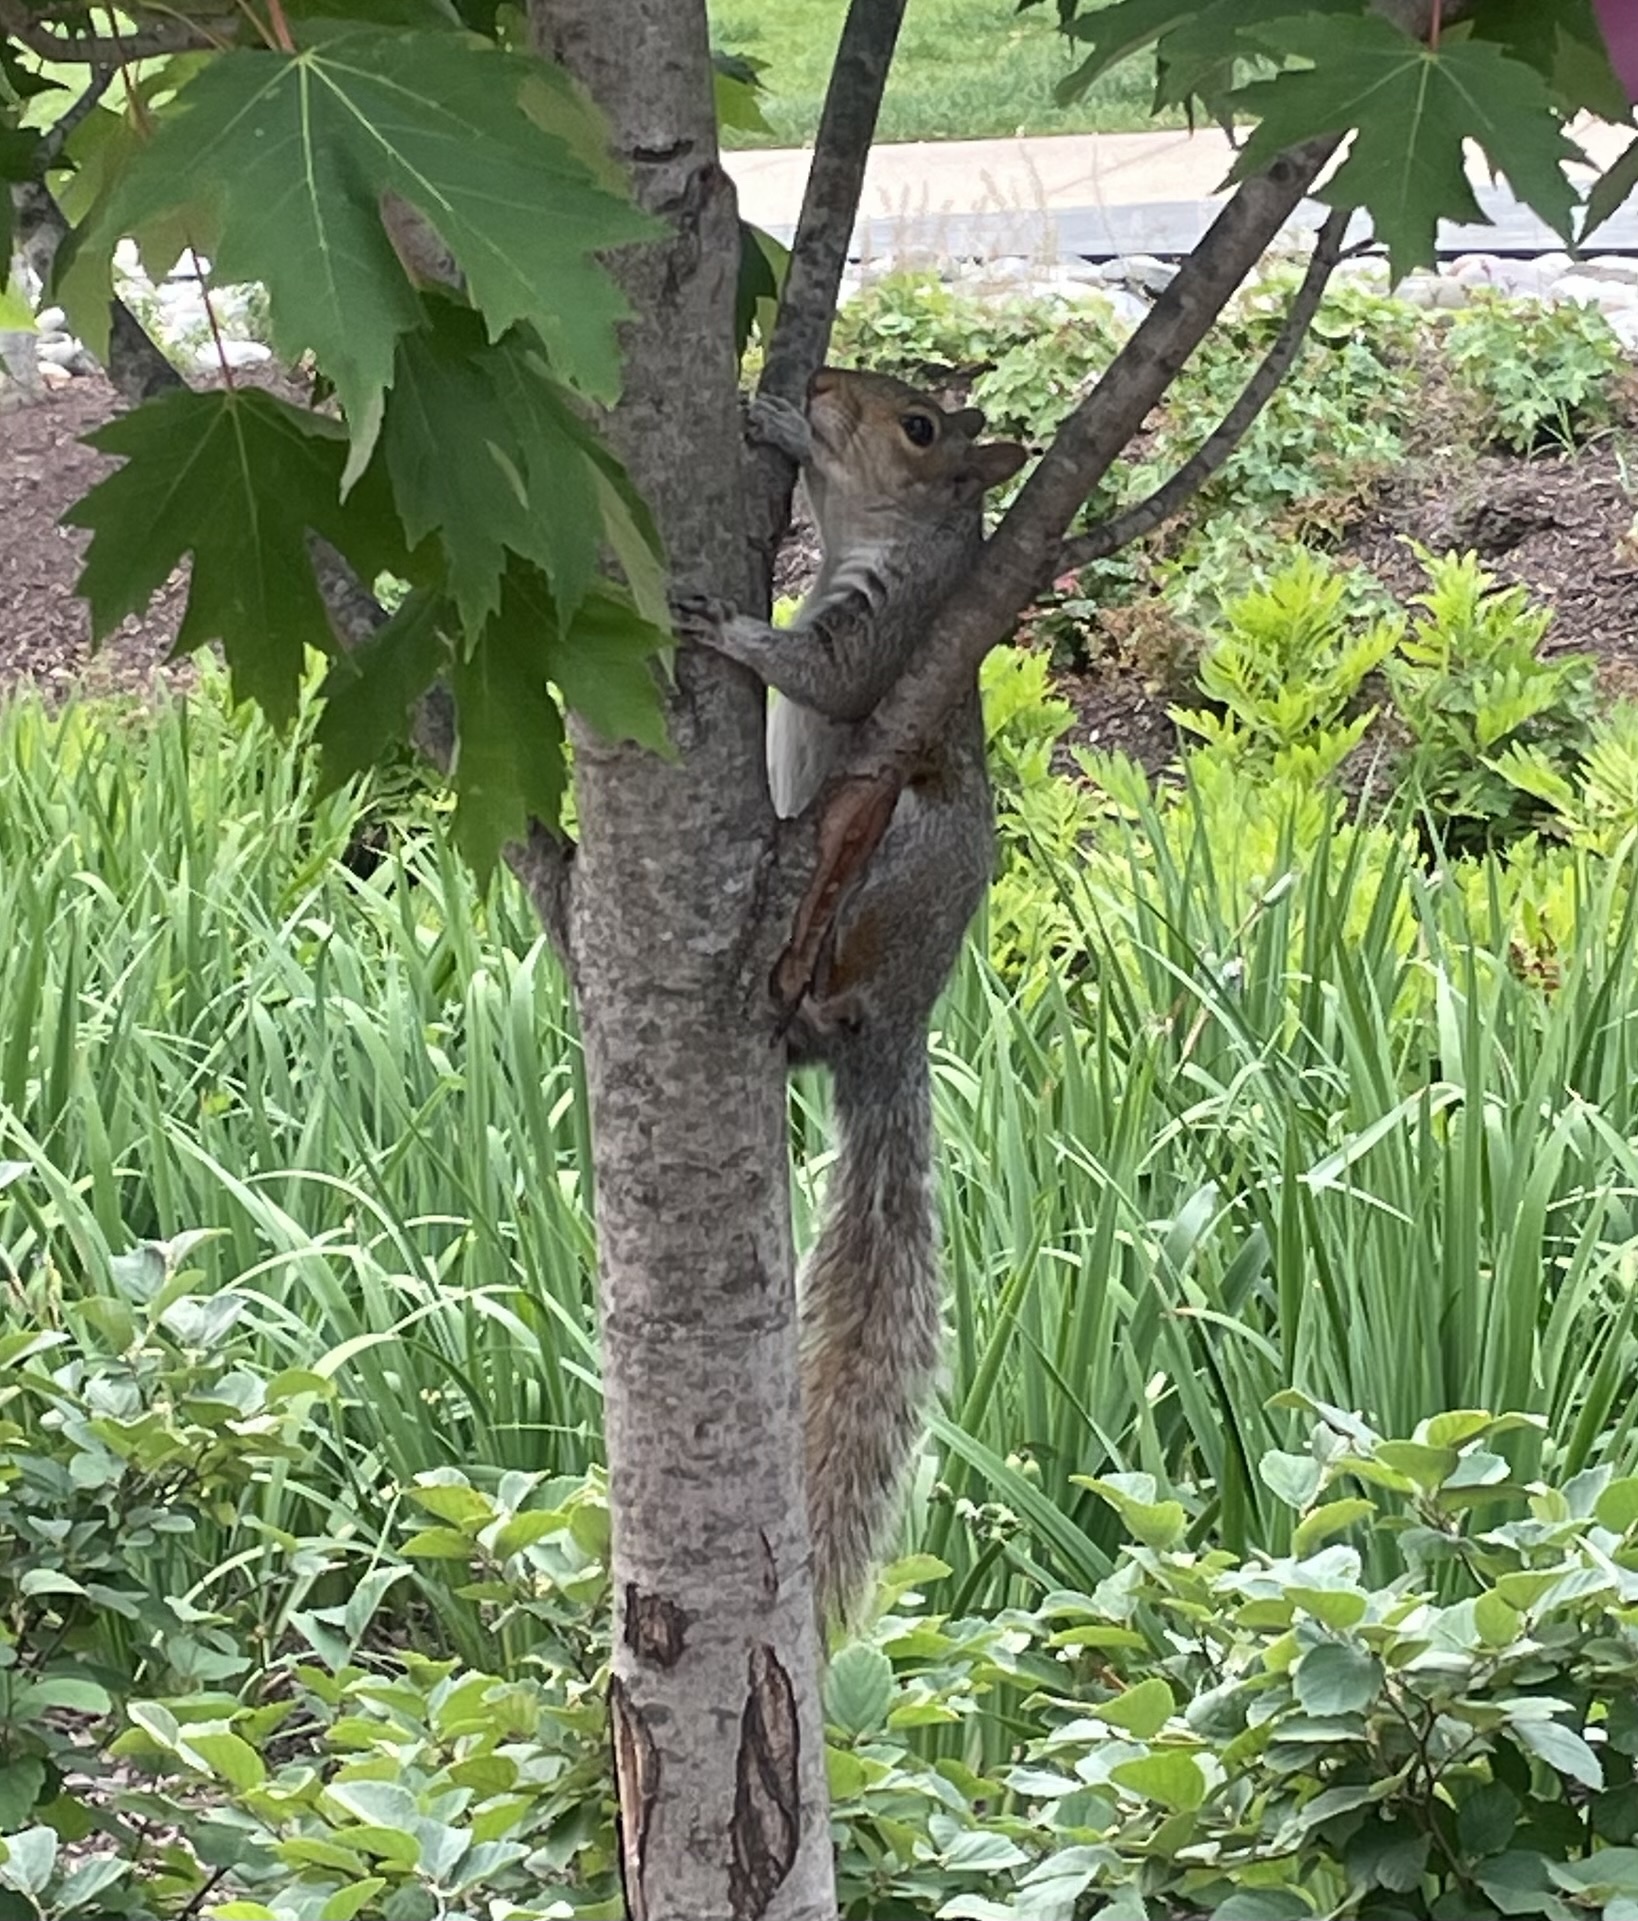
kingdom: Animalia
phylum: Chordata
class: Mammalia
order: Rodentia
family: Sciuridae
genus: Sciurus
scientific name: Sciurus carolinensis
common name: Eastern gray squirrel
